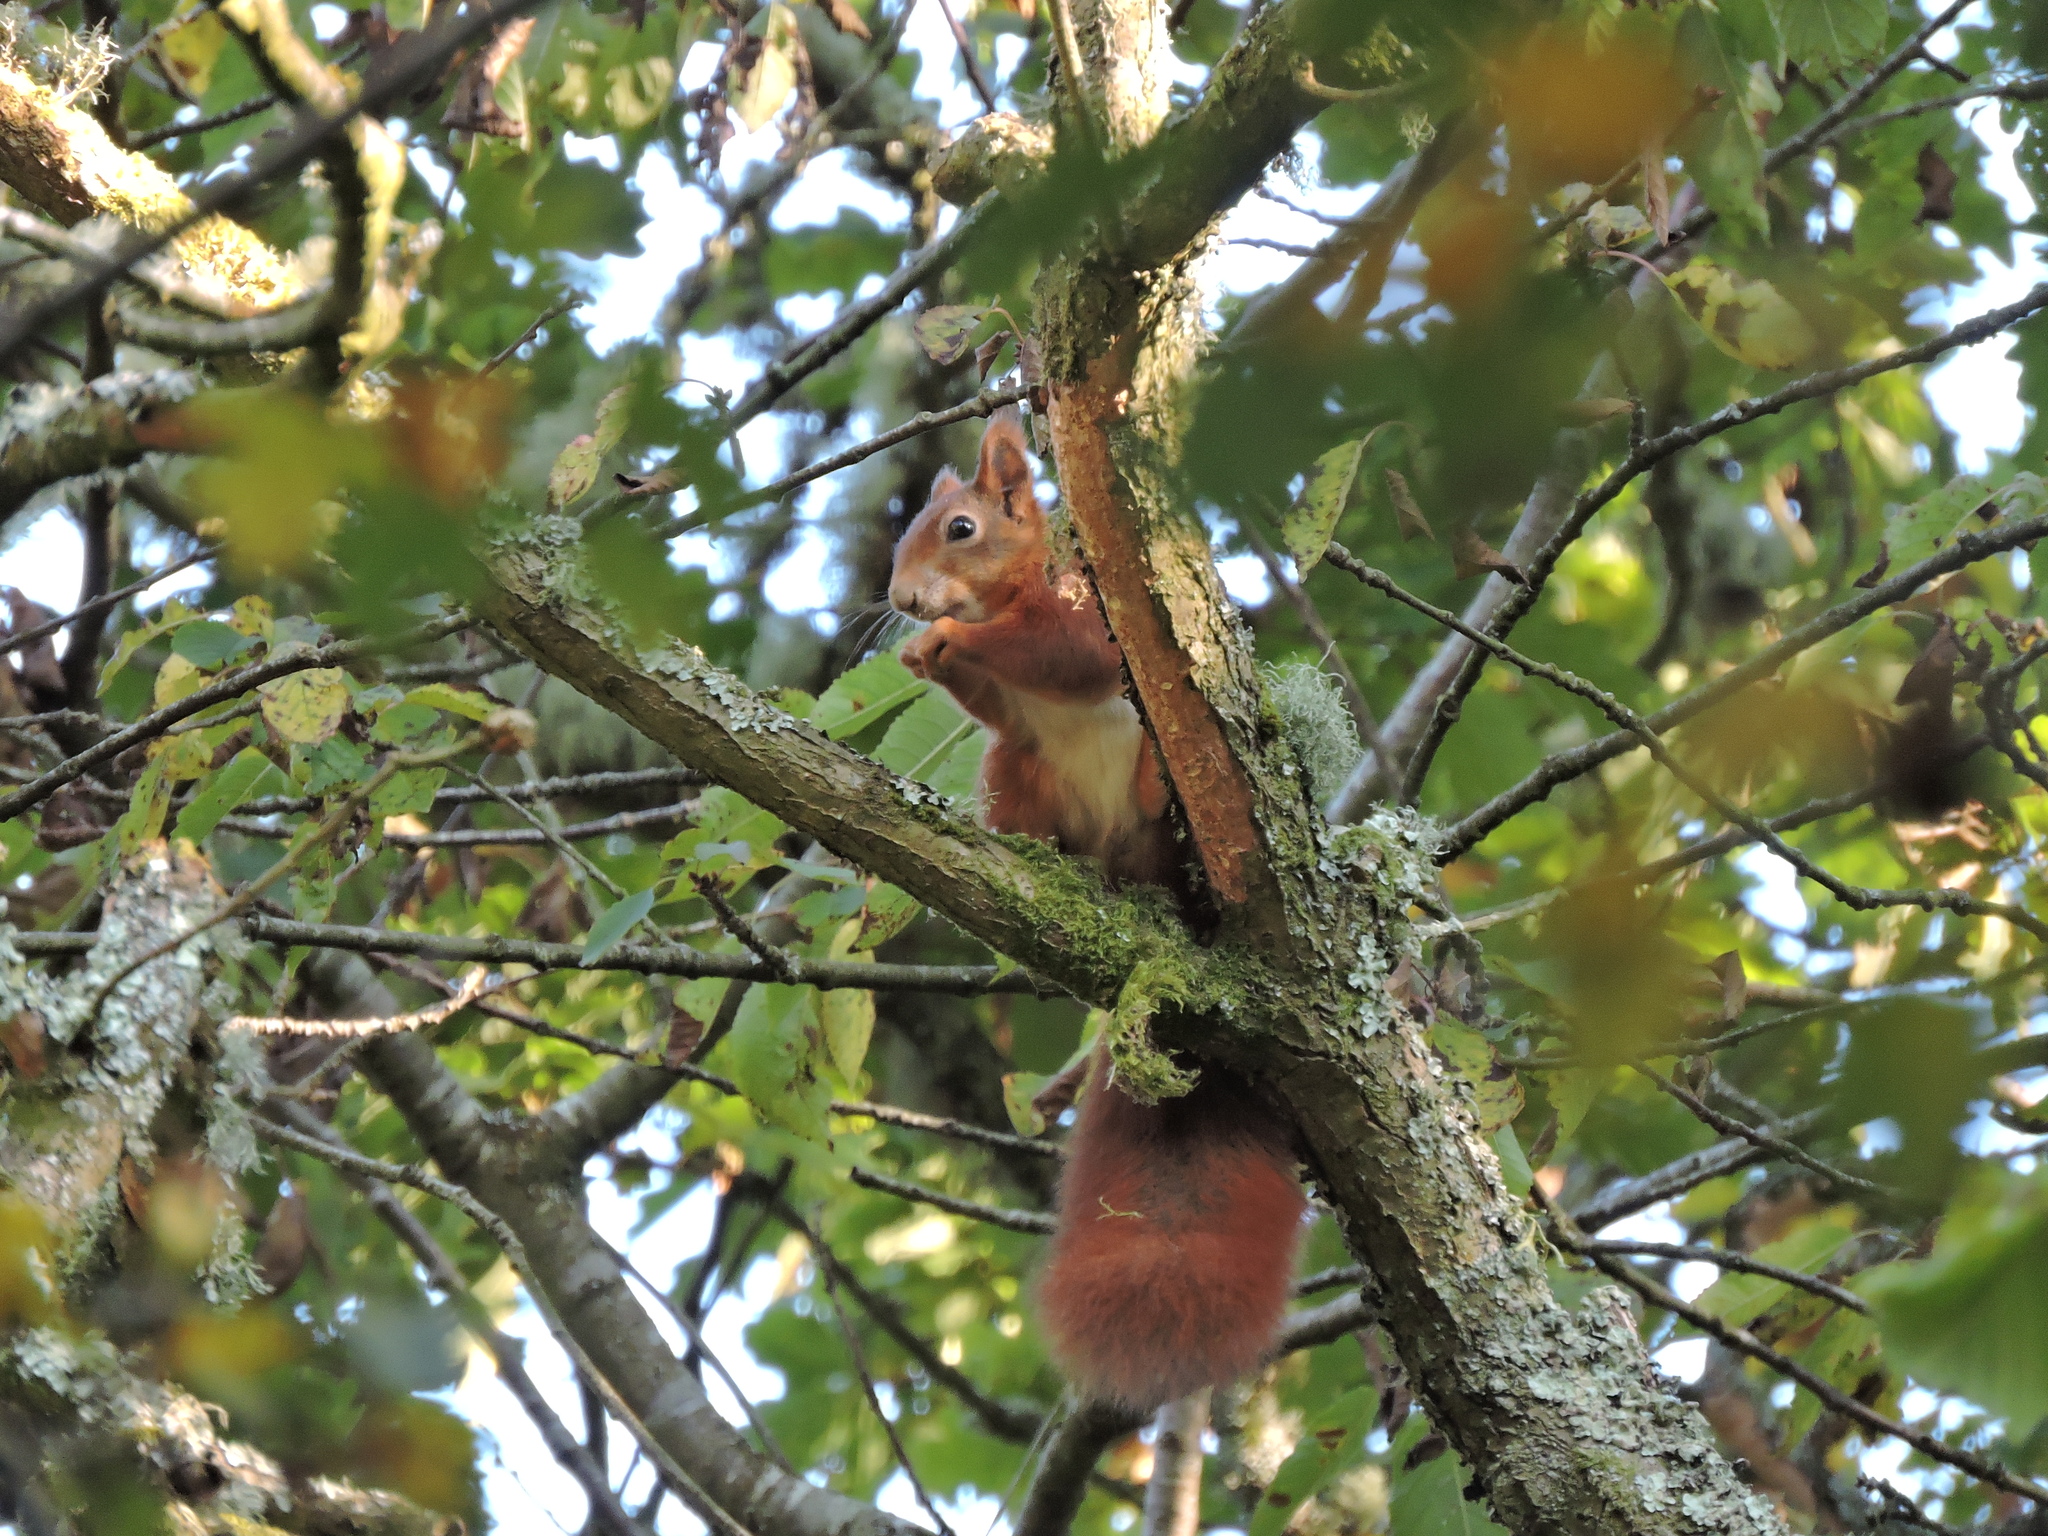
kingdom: Animalia
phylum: Chordata
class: Mammalia
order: Rodentia
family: Sciuridae
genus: Sciurus
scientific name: Sciurus vulgaris
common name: Eurasian red squirrel
